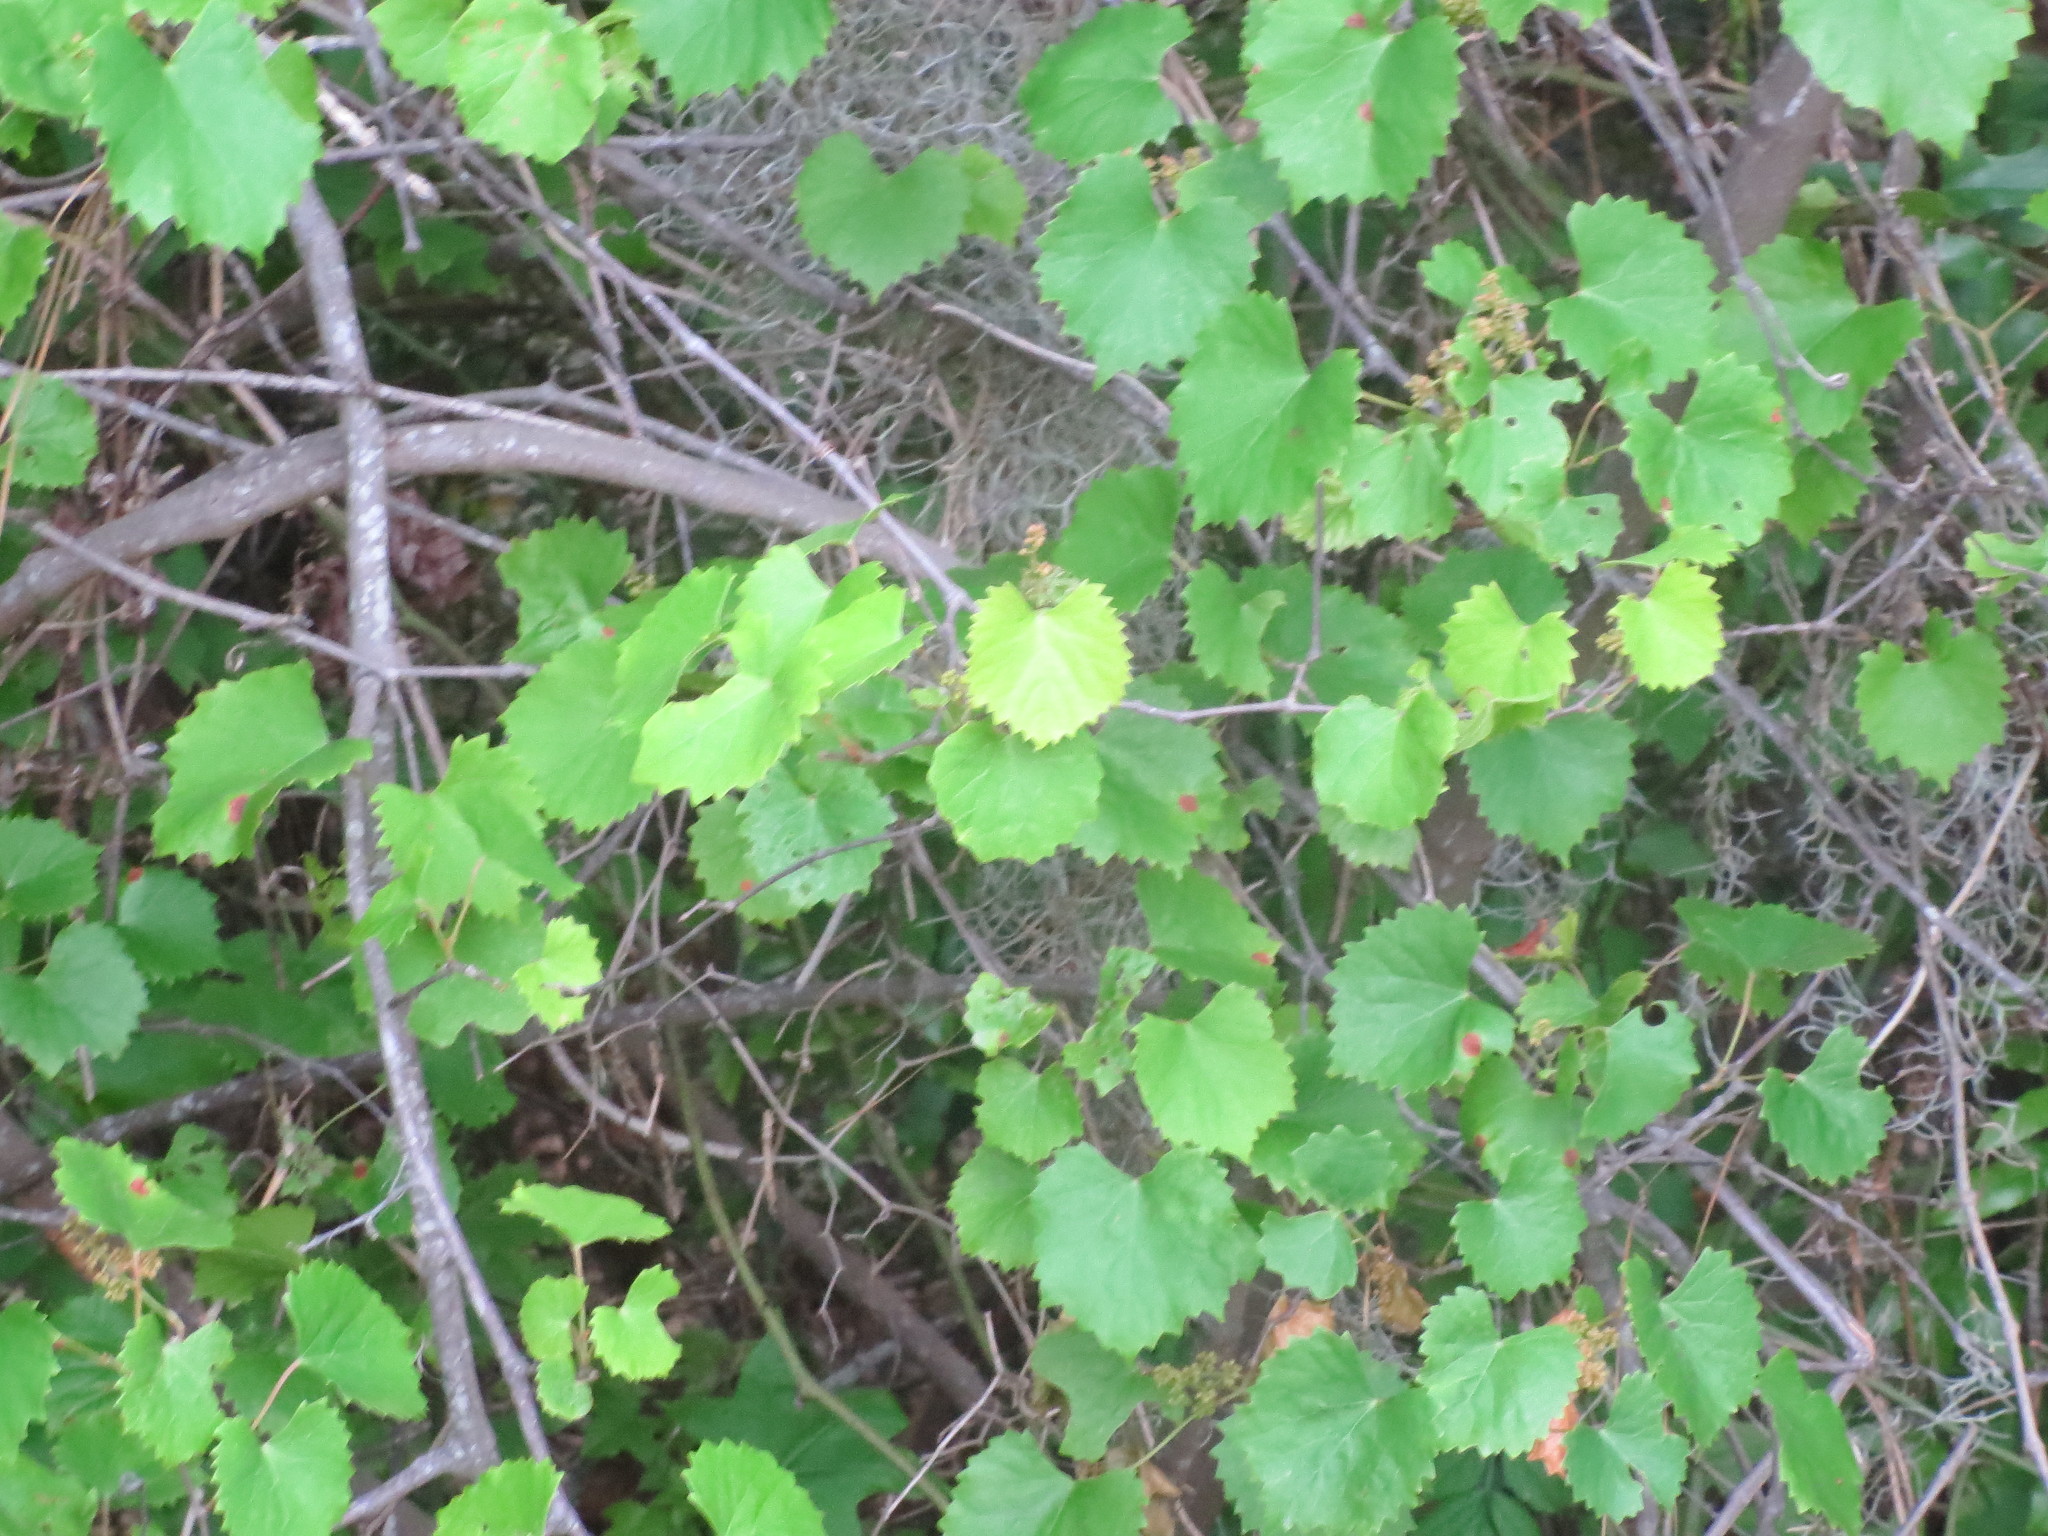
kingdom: Plantae
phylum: Tracheophyta
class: Magnoliopsida
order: Vitales
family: Vitaceae
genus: Vitis
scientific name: Vitis rotundifolia
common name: Muscadine grape
